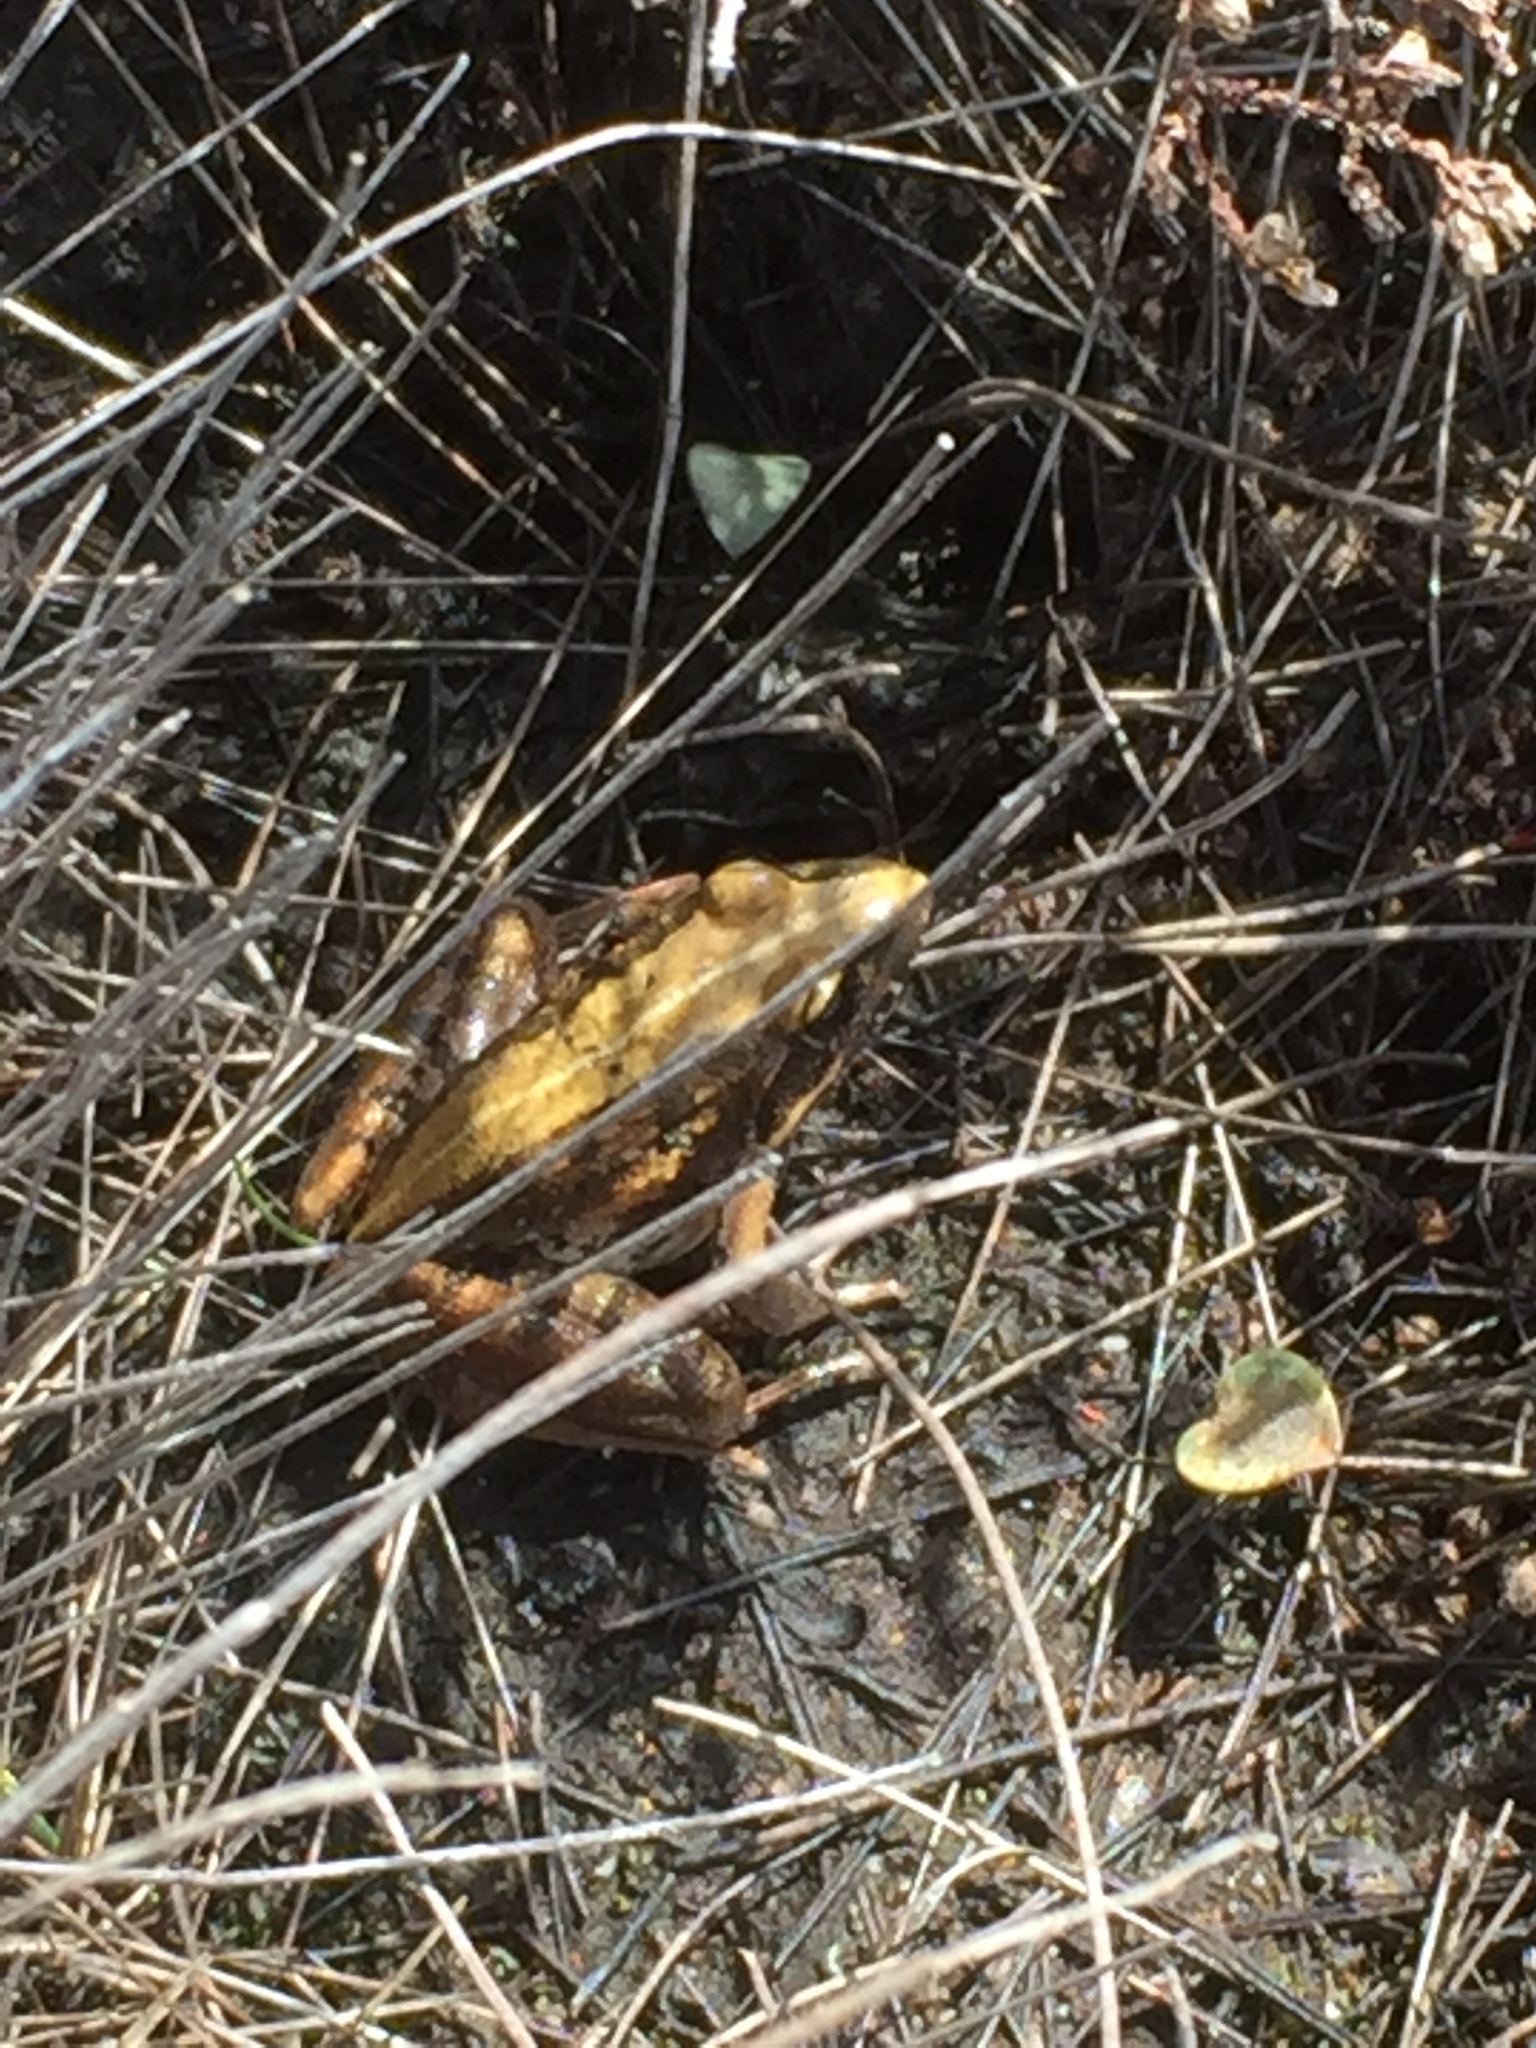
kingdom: Animalia
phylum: Chordata
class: Amphibia
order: Anura
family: Pyxicephalidae
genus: Strongylopus
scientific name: Strongylopus grayii
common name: Gray's stream frog
